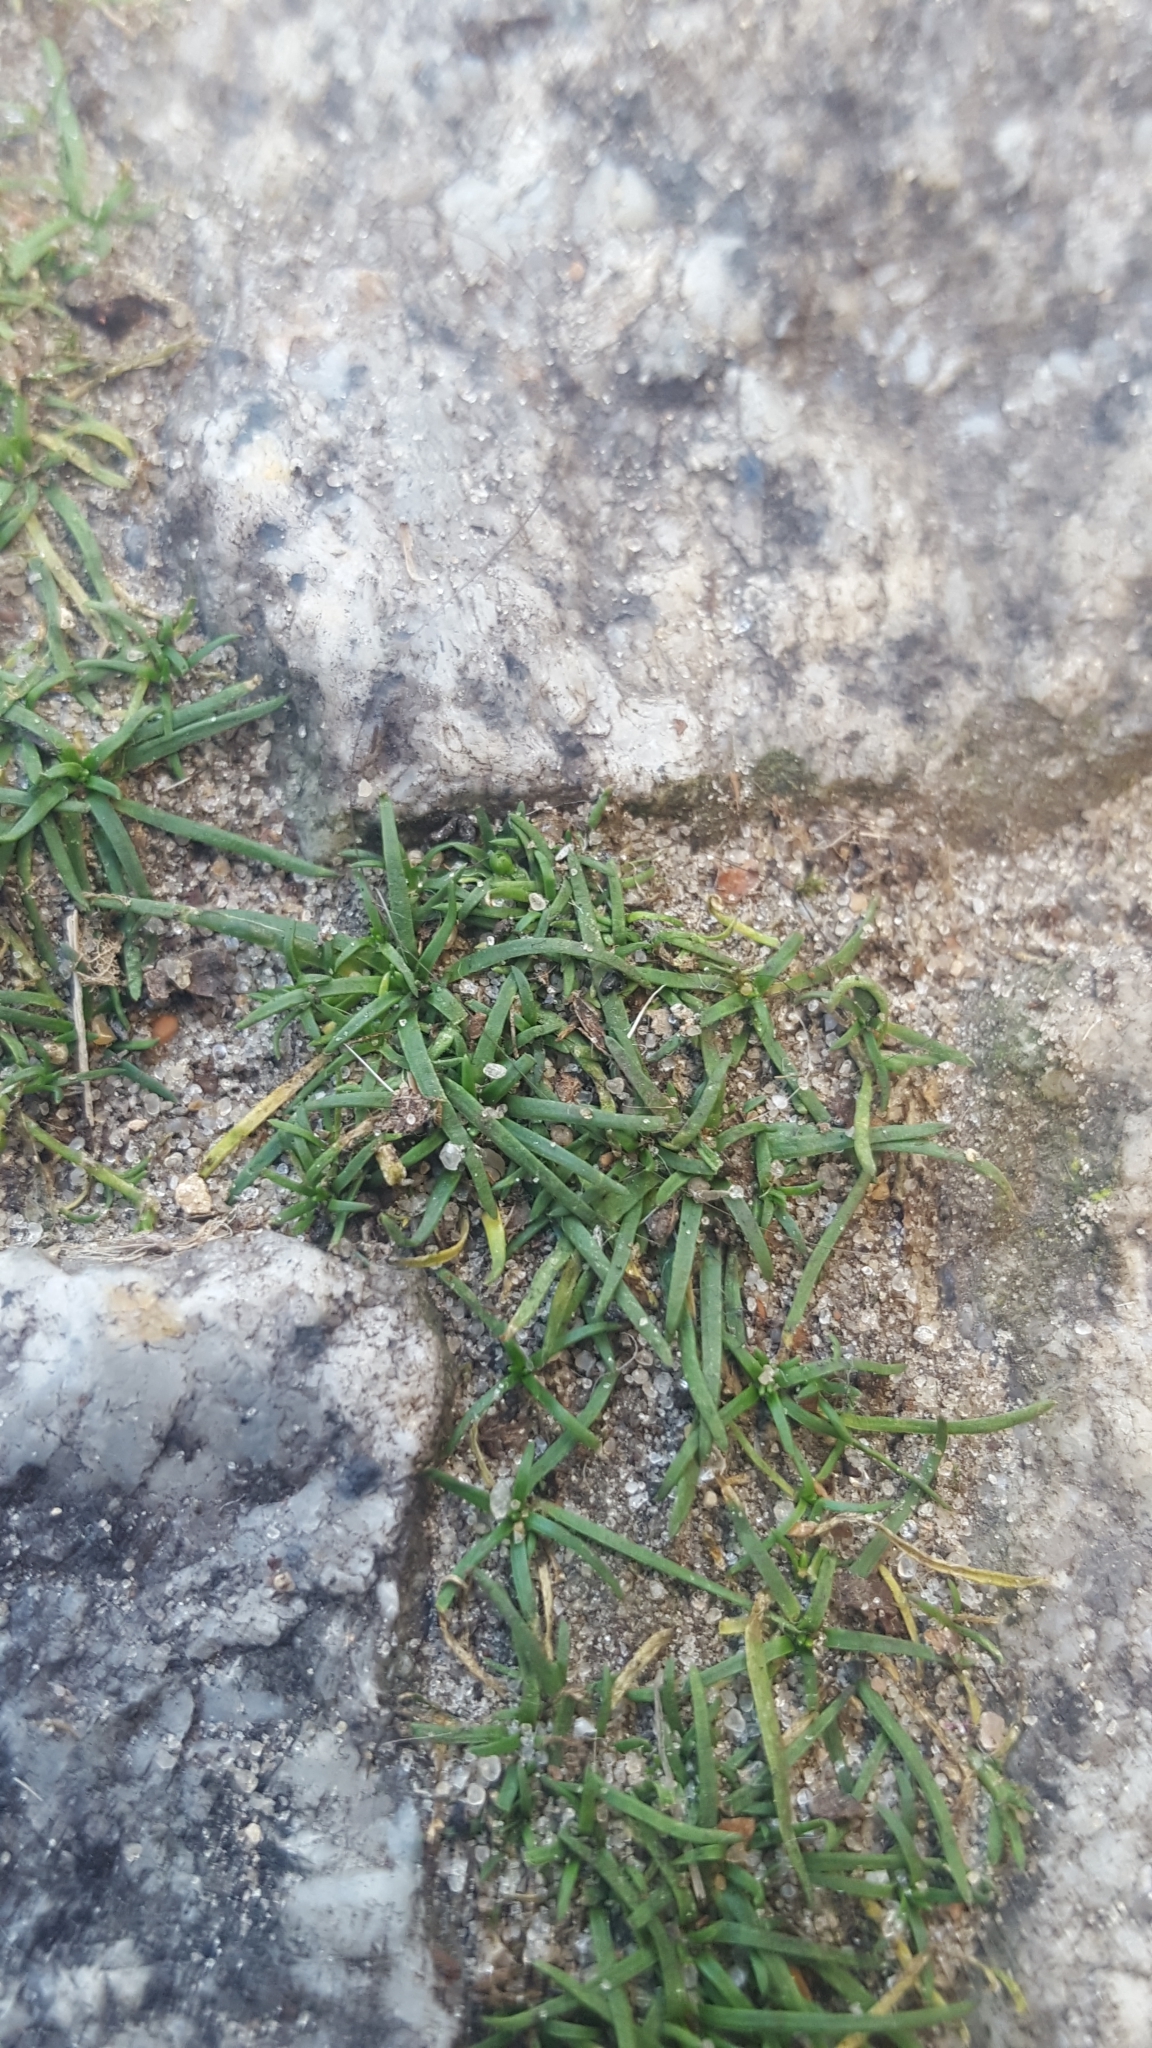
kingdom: Plantae
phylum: Tracheophyta
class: Magnoliopsida
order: Caryophyllales
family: Caryophyllaceae
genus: Sagina
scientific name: Sagina procumbens
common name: Procumbent pearlwort
